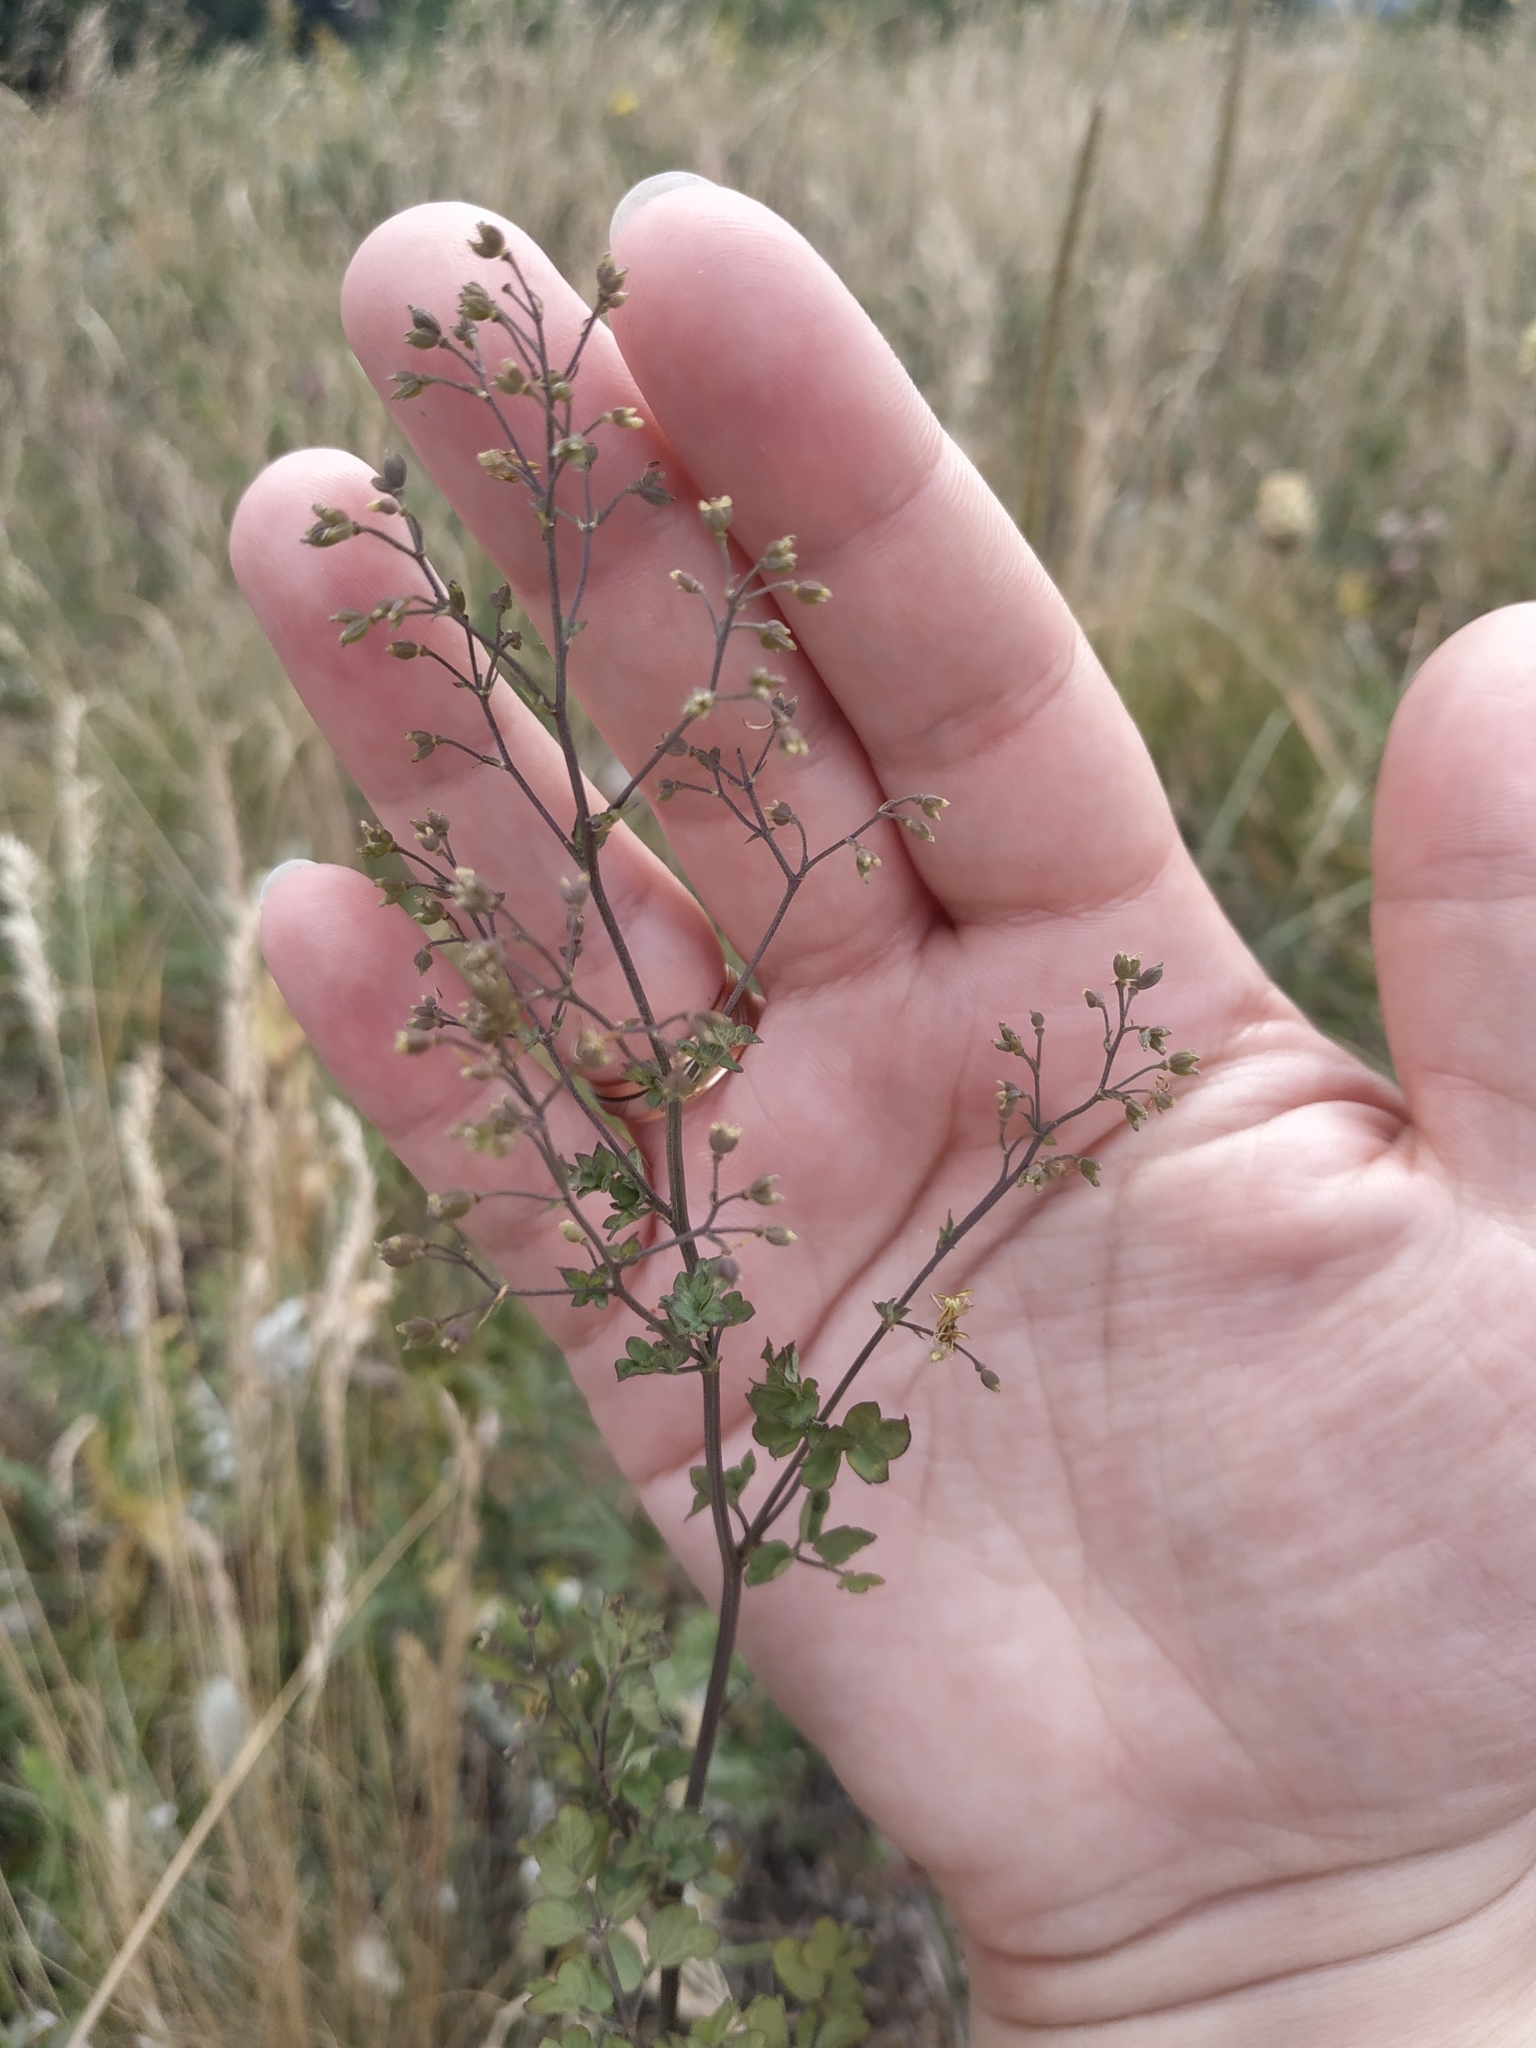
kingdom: Plantae
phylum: Tracheophyta
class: Magnoliopsida
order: Ranunculales
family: Ranunculaceae
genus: Thalictrum
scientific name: Thalictrum minus
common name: Lesser meadow-rue
